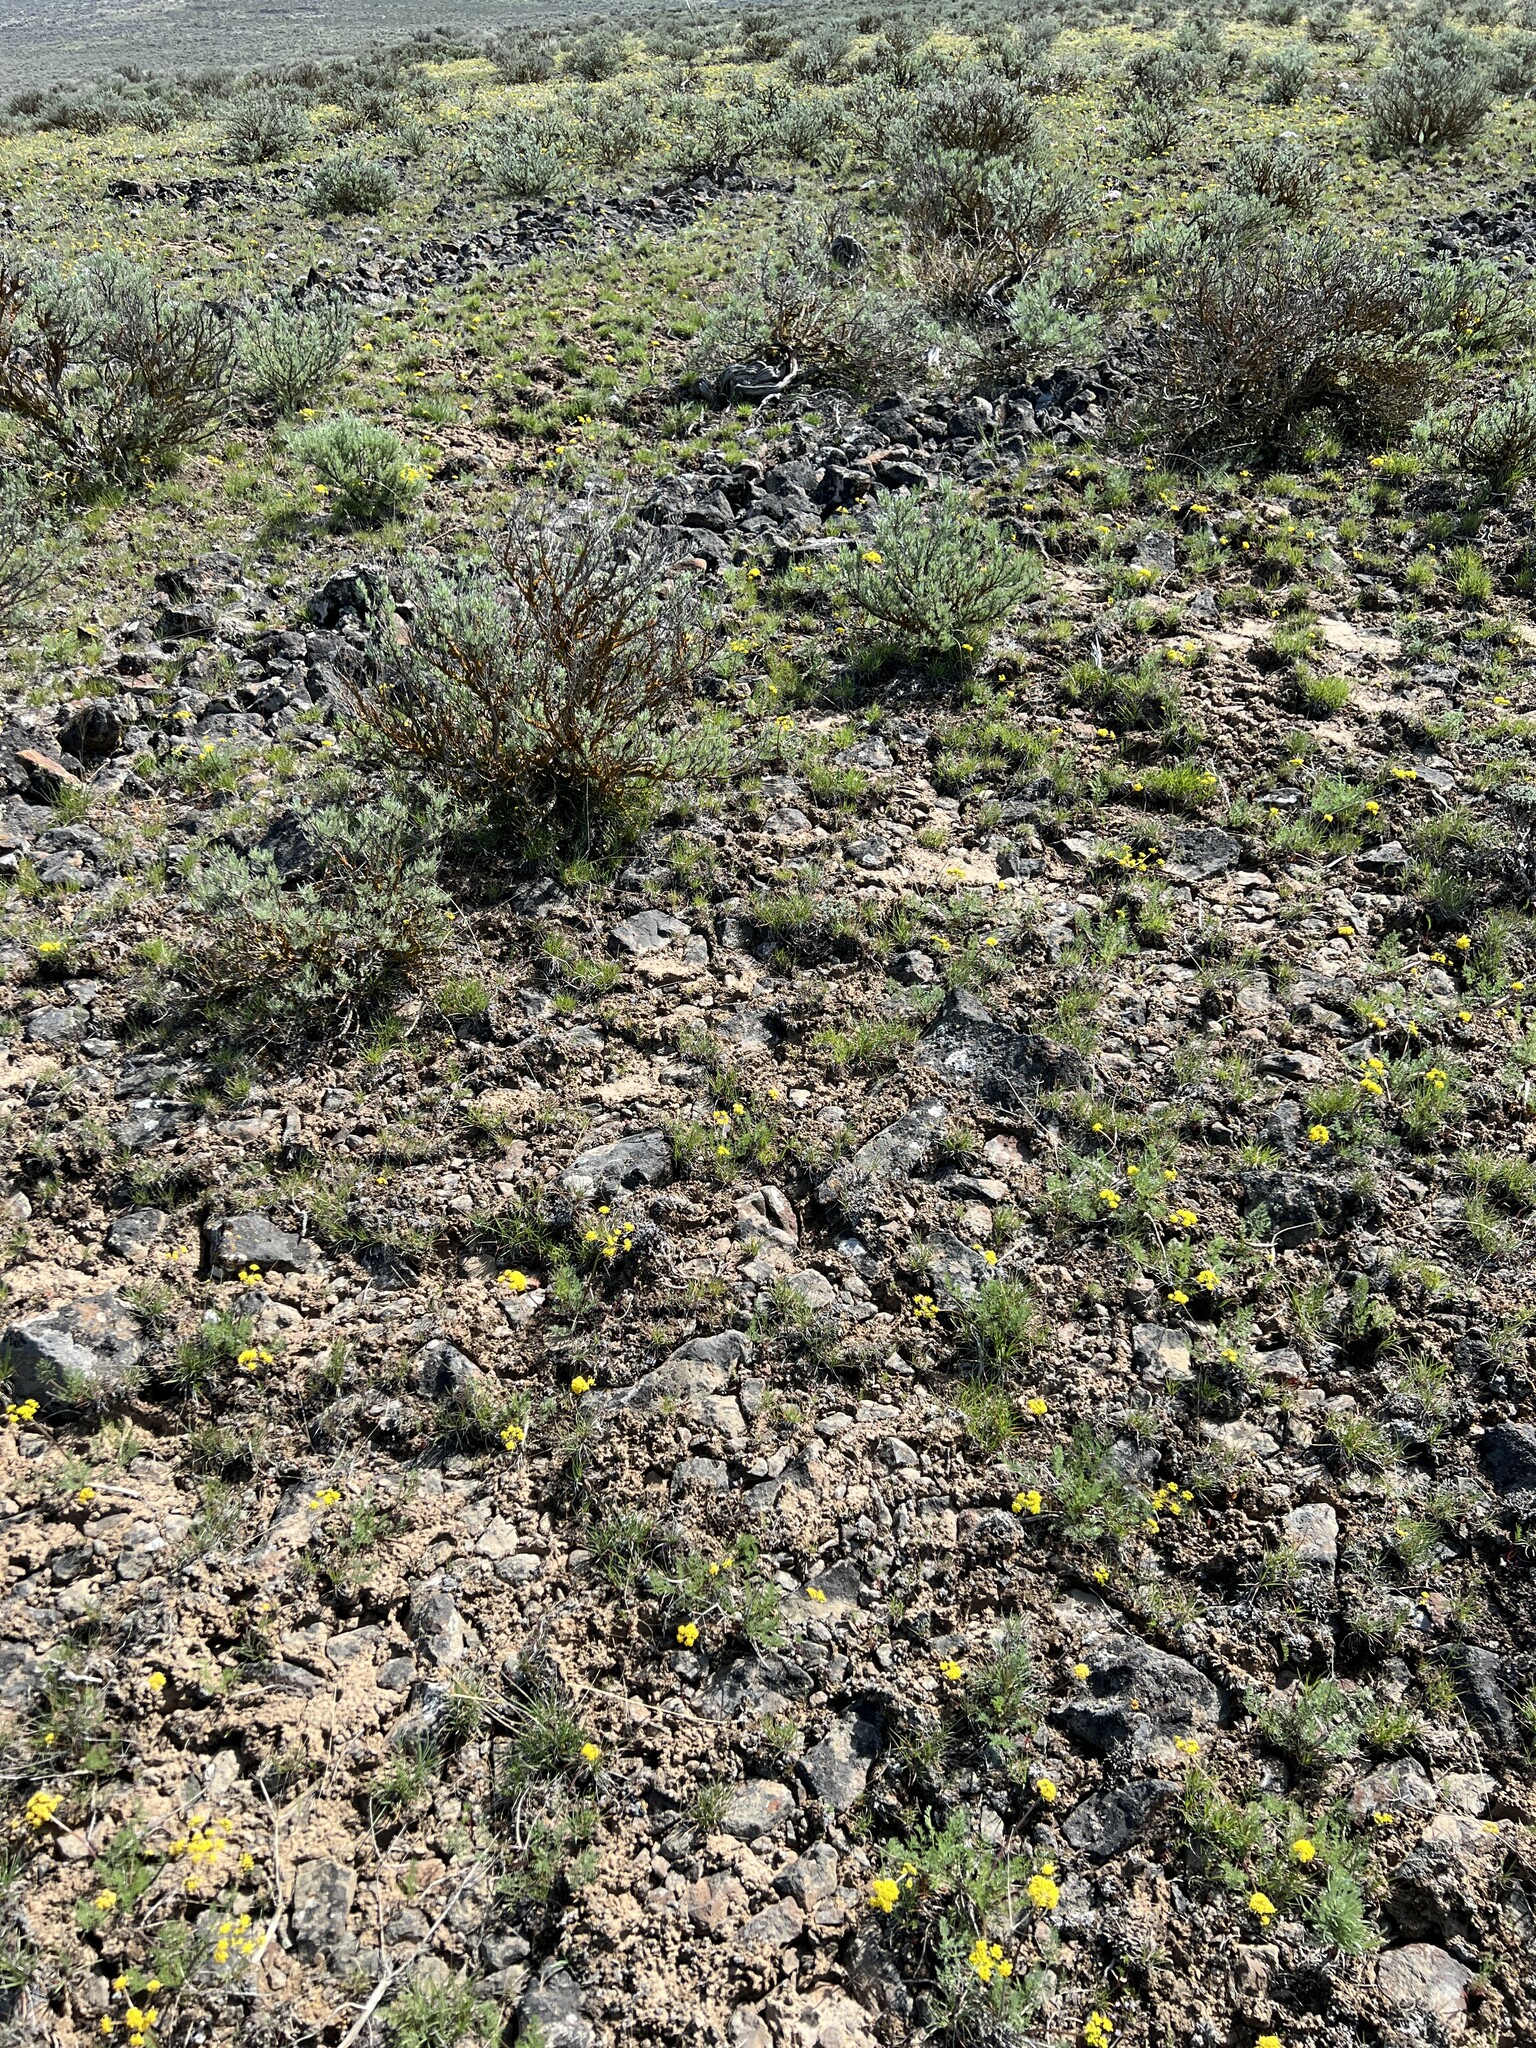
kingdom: Plantae
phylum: Tracheophyta
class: Magnoliopsida
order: Apiales
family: Apiaceae
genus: Lomatium
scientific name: Lomatium quintuplex
